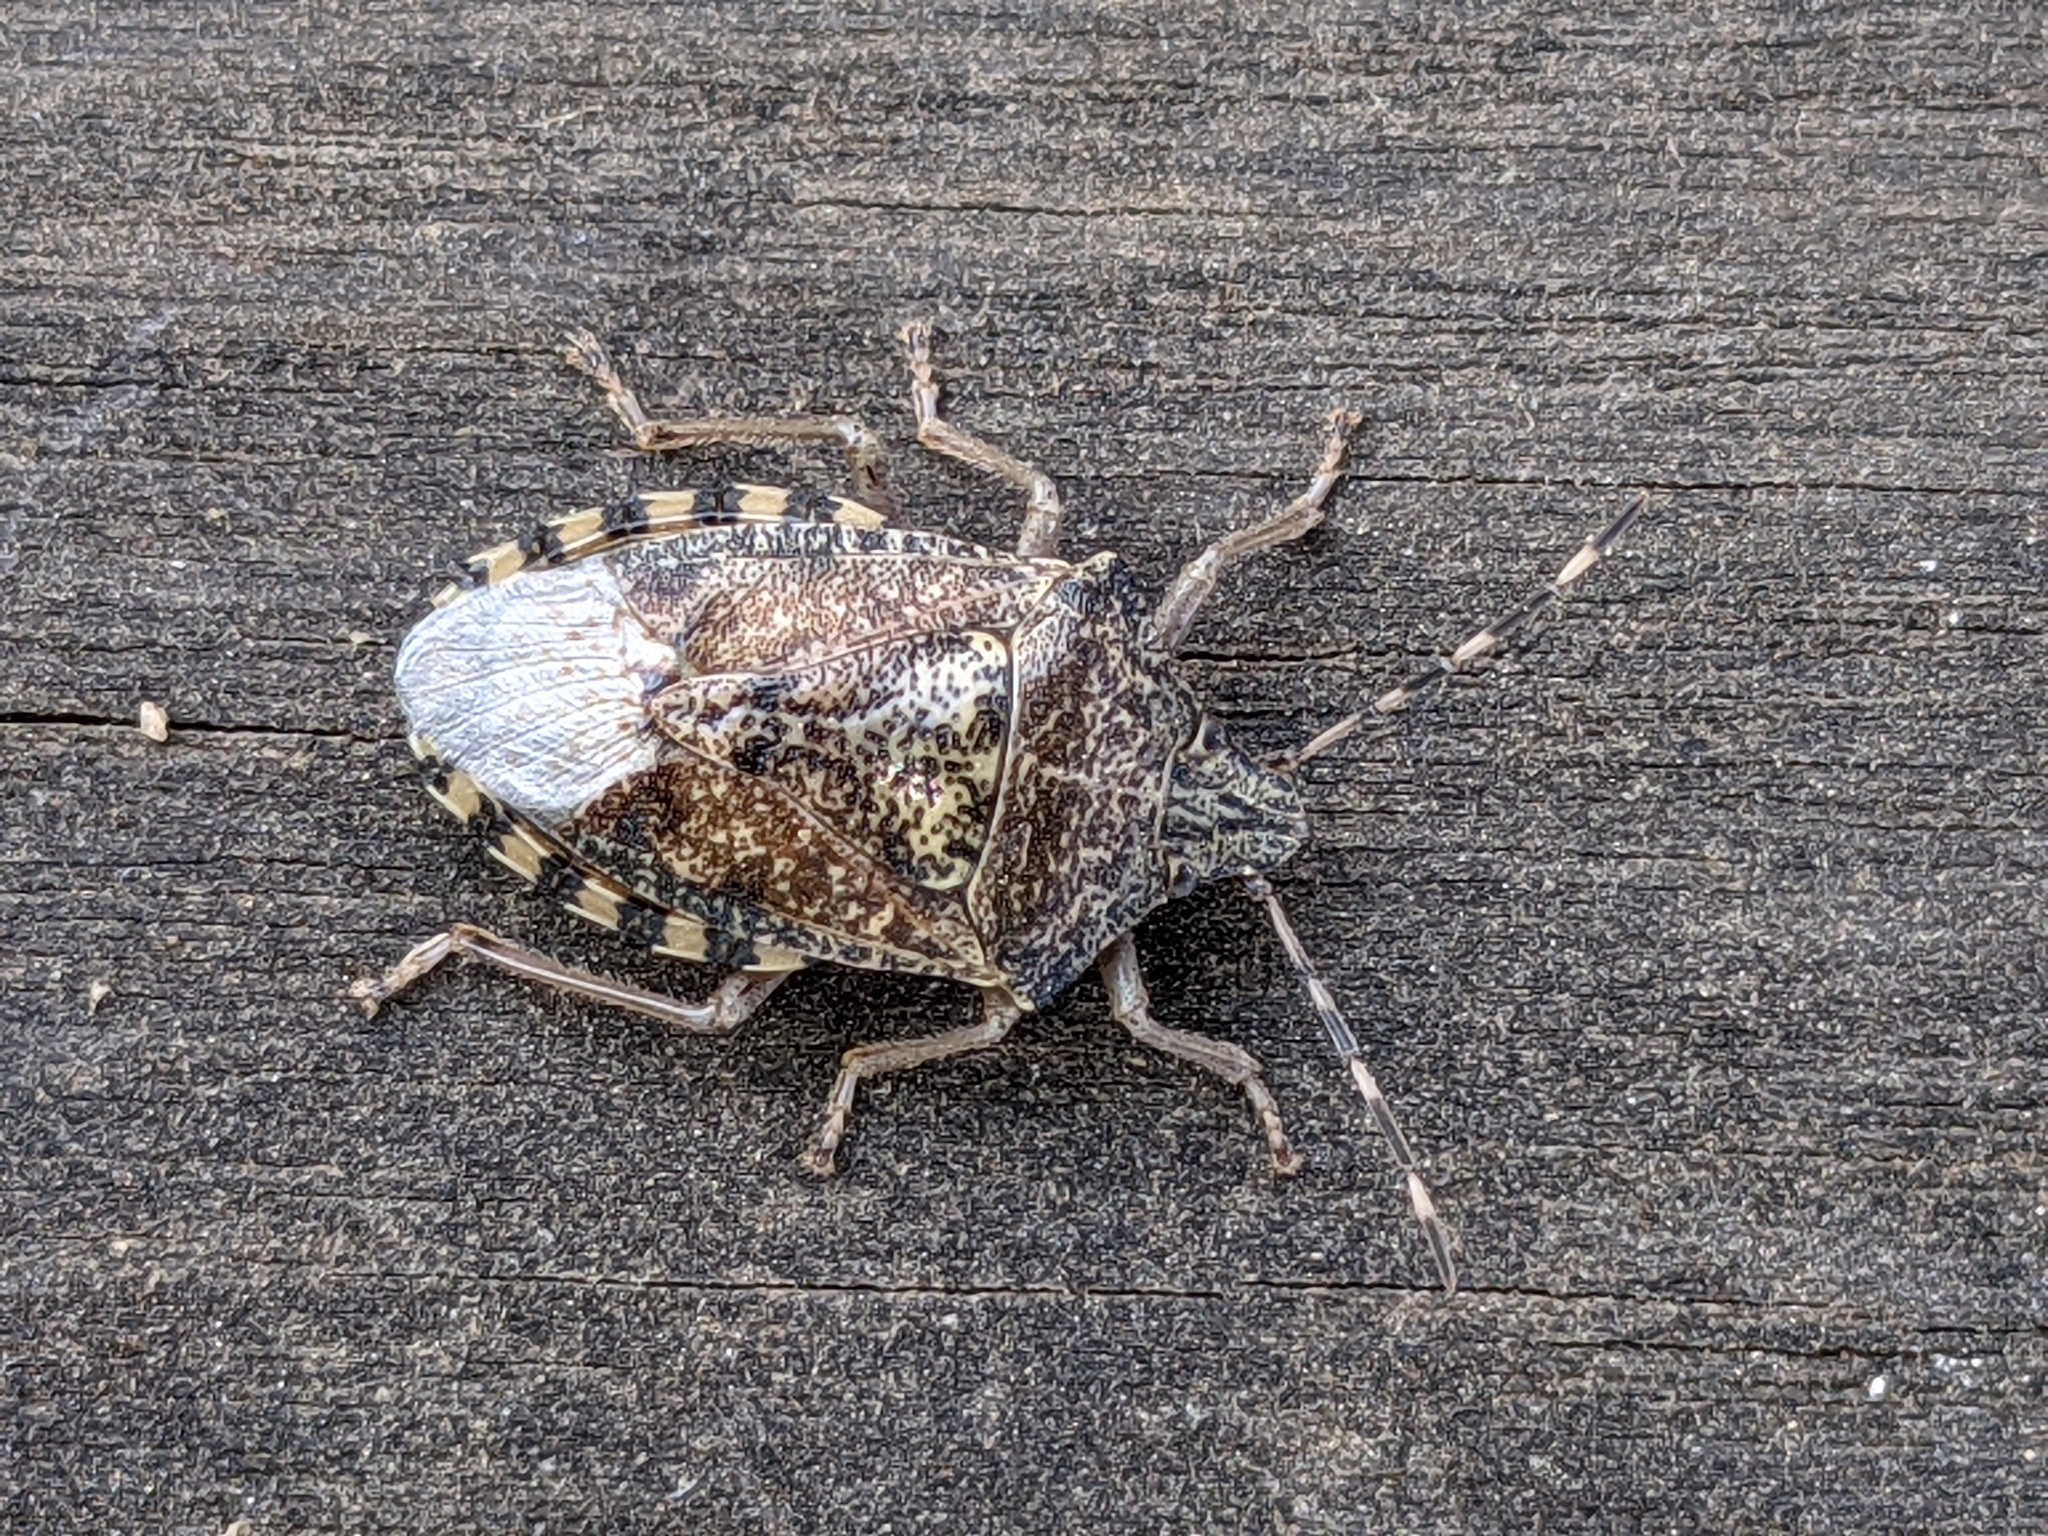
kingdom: Animalia
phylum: Arthropoda
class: Insecta
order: Hemiptera
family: Pentatomidae
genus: Rhaphigaster
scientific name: Rhaphigaster nebulosa
